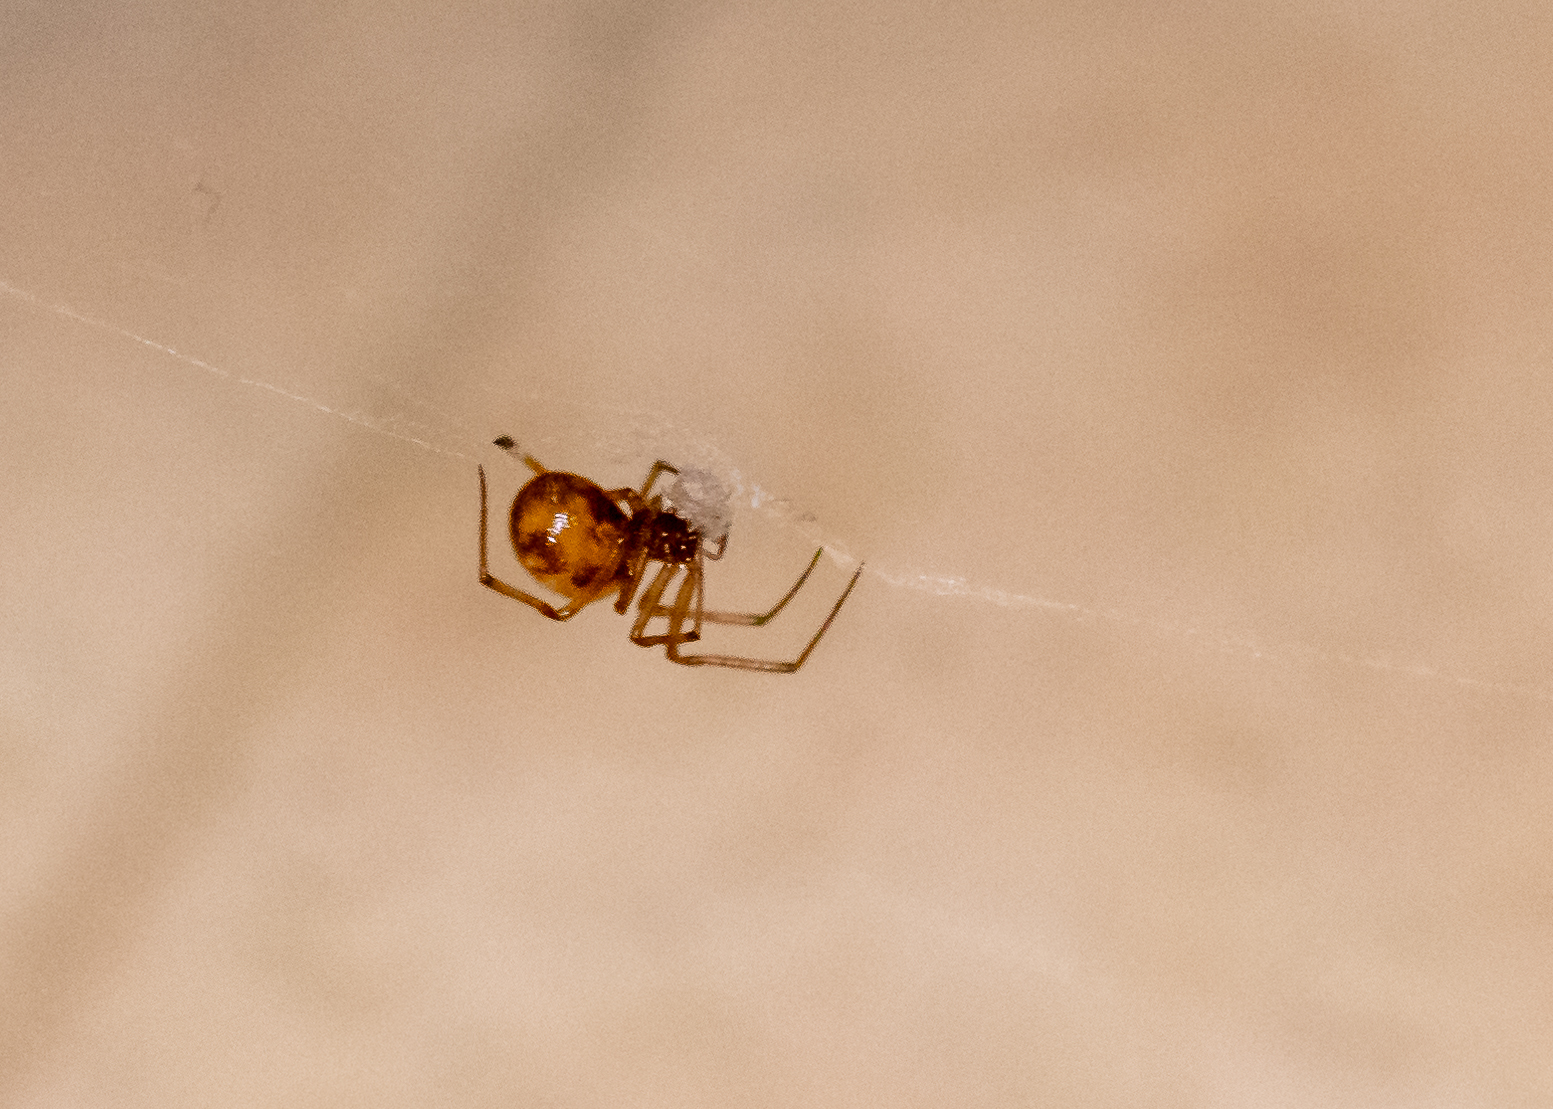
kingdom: Animalia
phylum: Arthropoda
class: Arachnida
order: Araneae
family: Theridiidae
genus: Steatoda
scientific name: Steatoda triangulosa
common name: Triangulate bud spider
